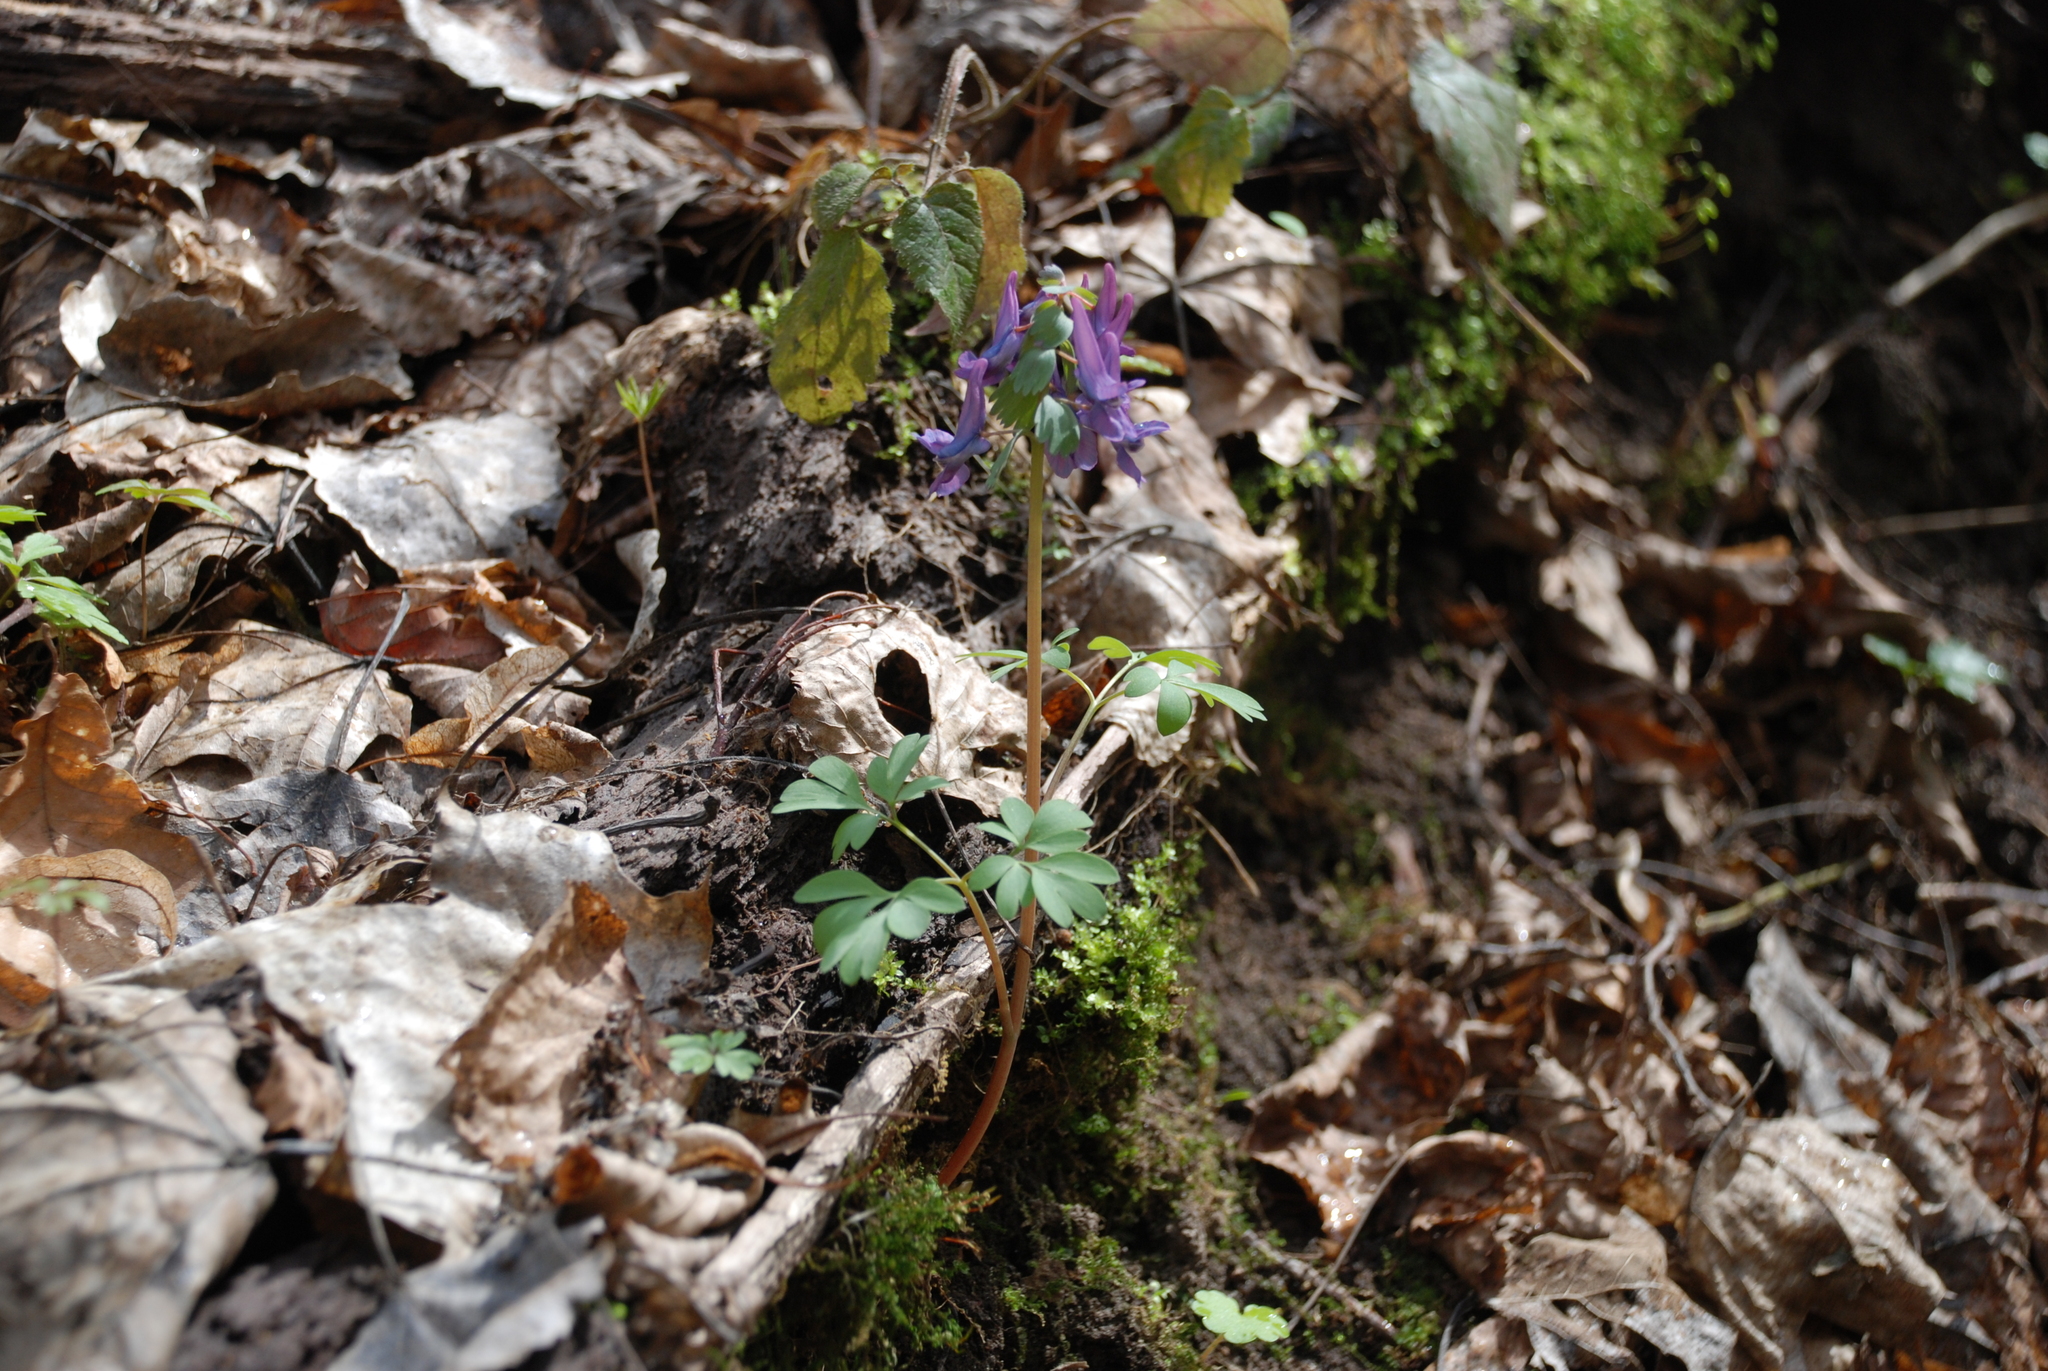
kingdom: Plantae
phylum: Tracheophyta
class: Magnoliopsida
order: Ranunculales
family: Papaveraceae
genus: Corydalis
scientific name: Corydalis solida
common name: Bird-in-a-bush
